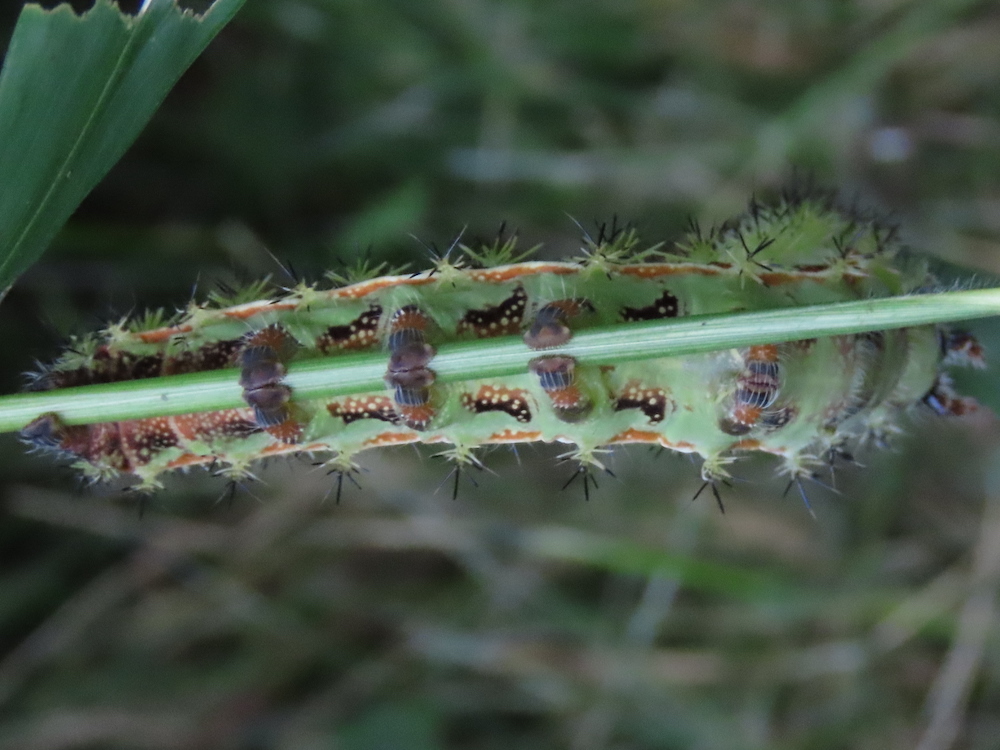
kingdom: Animalia
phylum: Arthropoda
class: Insecta
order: Lepidoptera
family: Saturniidae
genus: Automeris
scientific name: Automeris io
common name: Io moth
